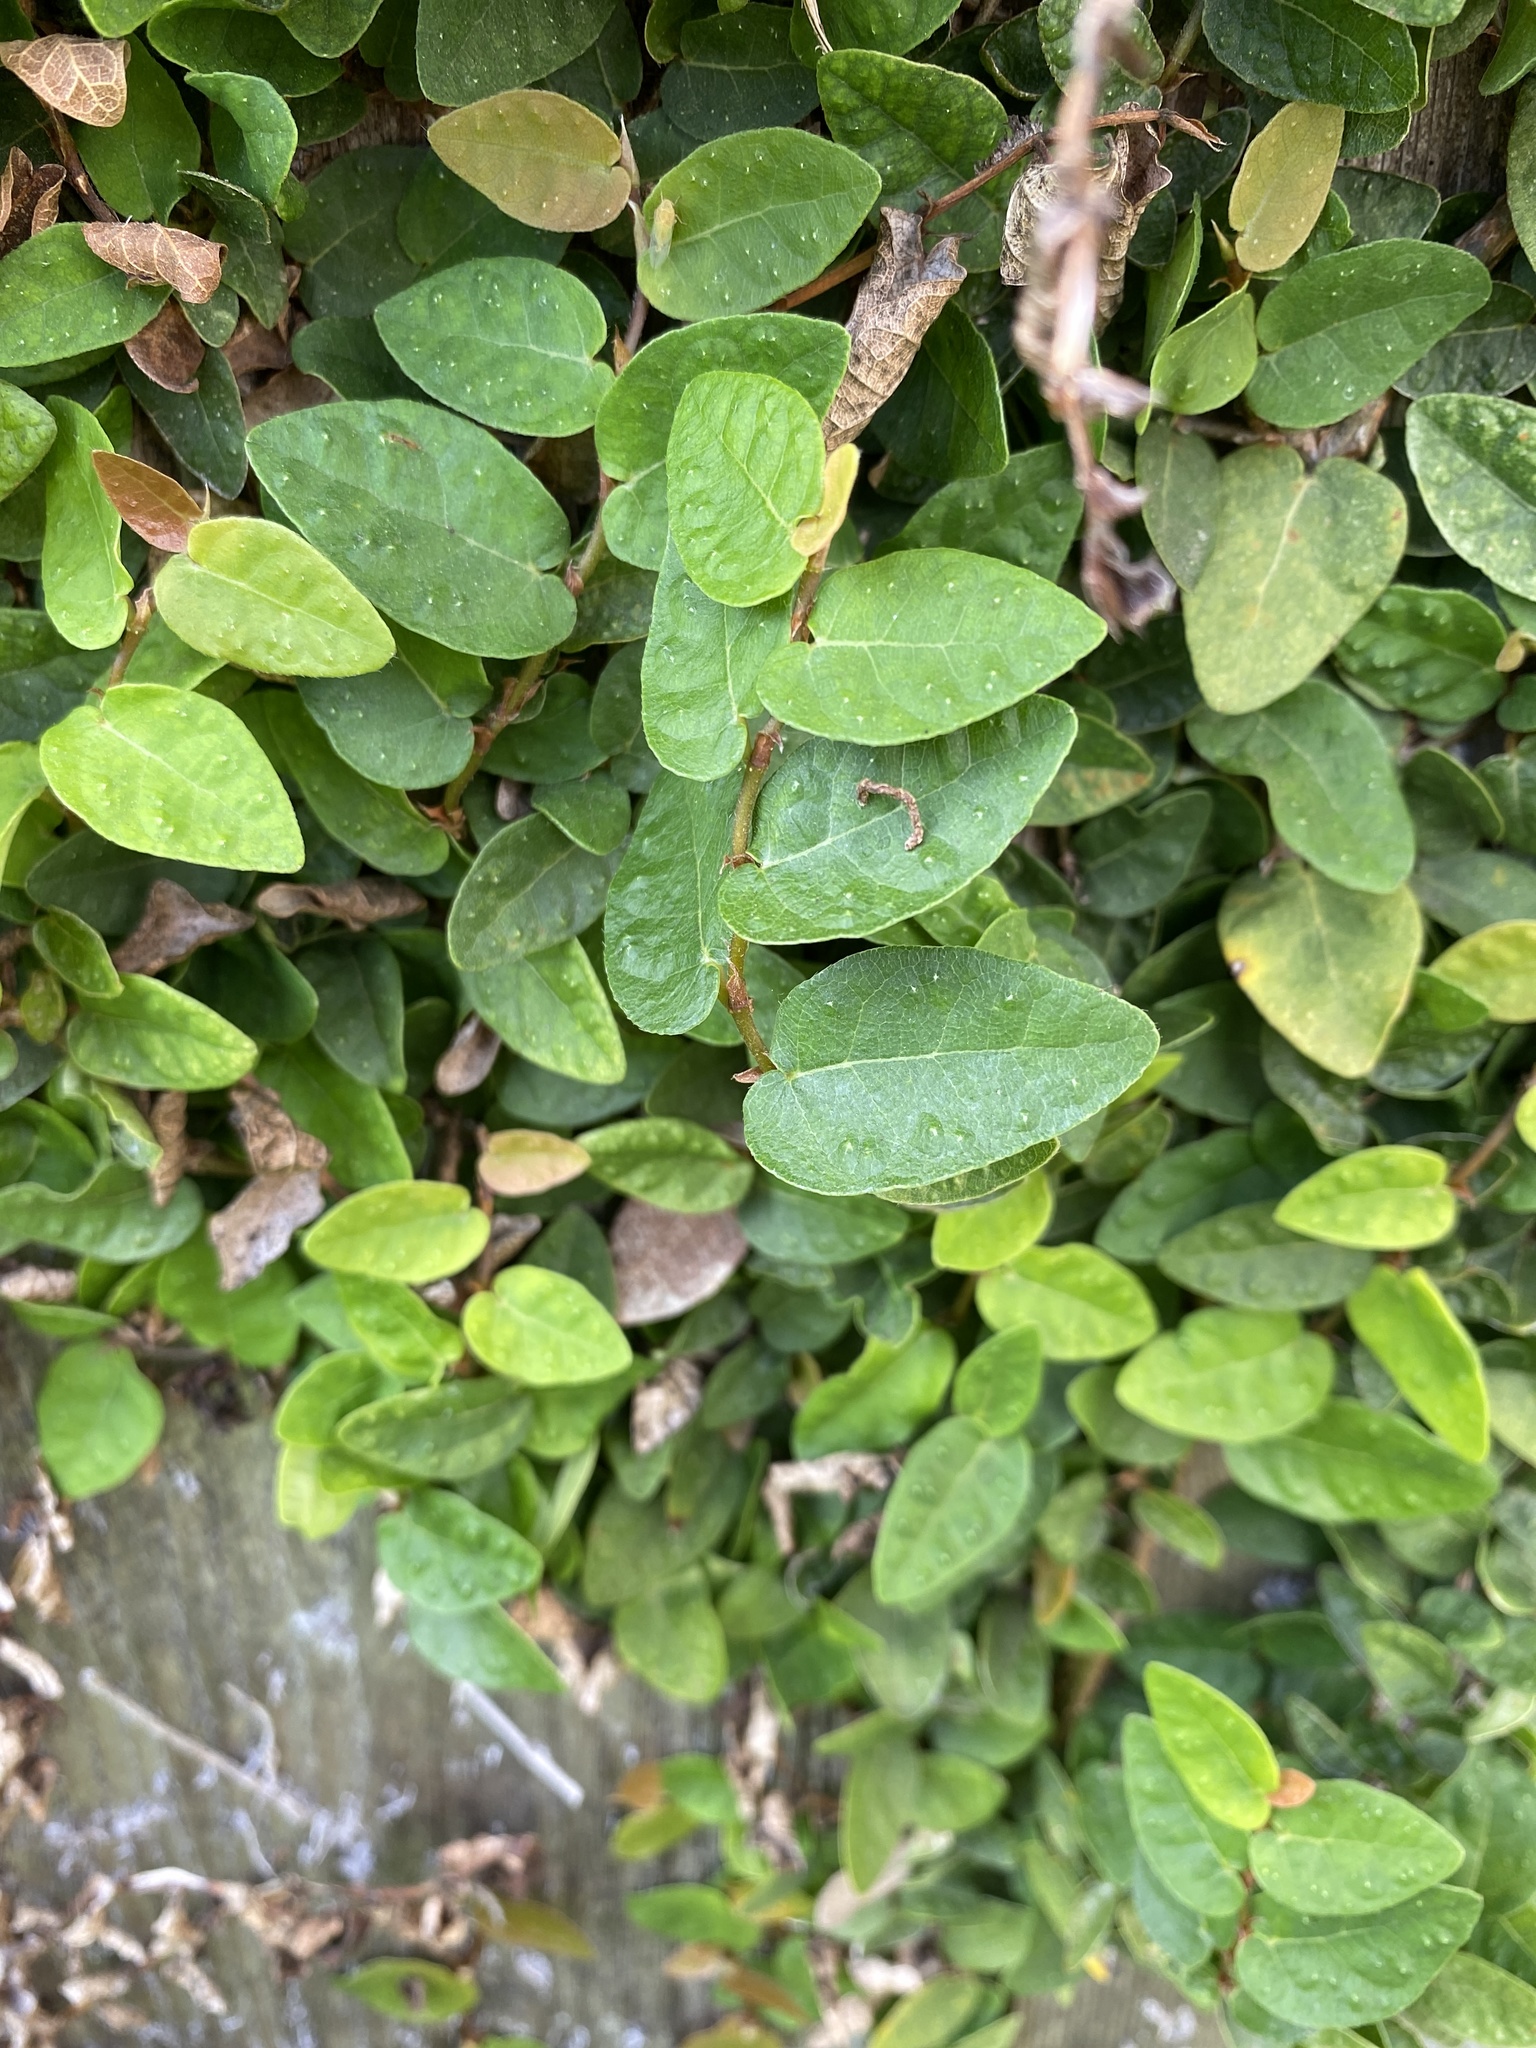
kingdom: Plantae
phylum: Tracheophyta
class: Magnoliopsida
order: Rosales
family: Moraceae
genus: Ficus
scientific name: Ficus pumila
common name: Climbingfig
